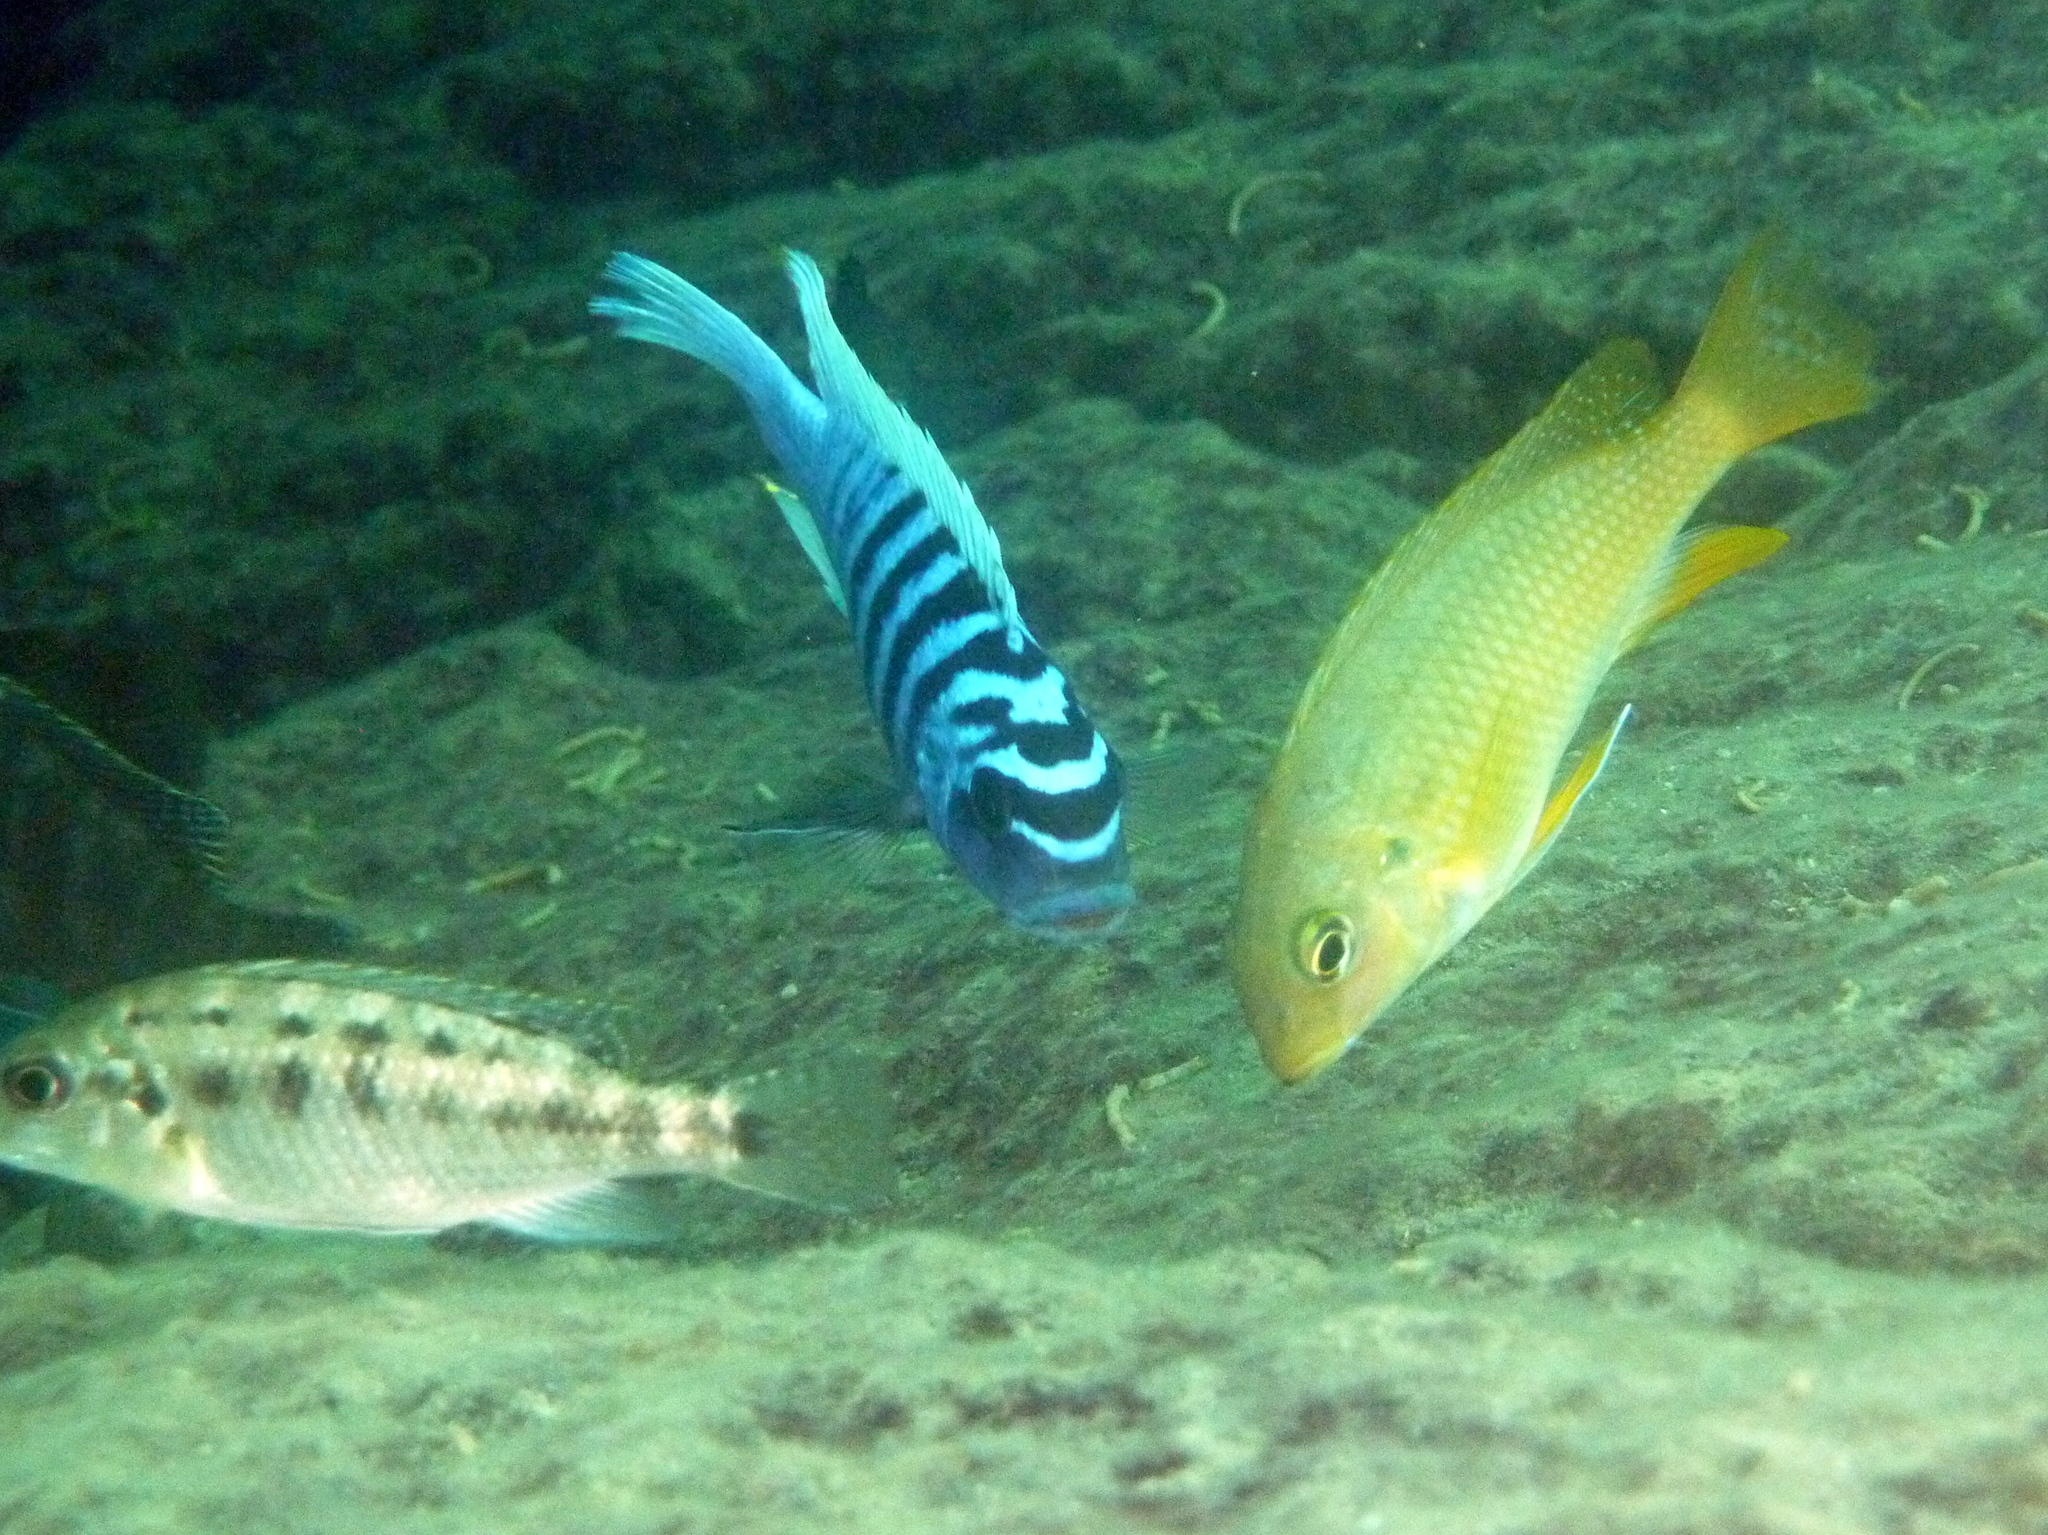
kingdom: Animalia
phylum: Chordata
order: Perciformes
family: Cichlidae
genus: Maylandia
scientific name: Maylandia zebra
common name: Zebra mbuna
